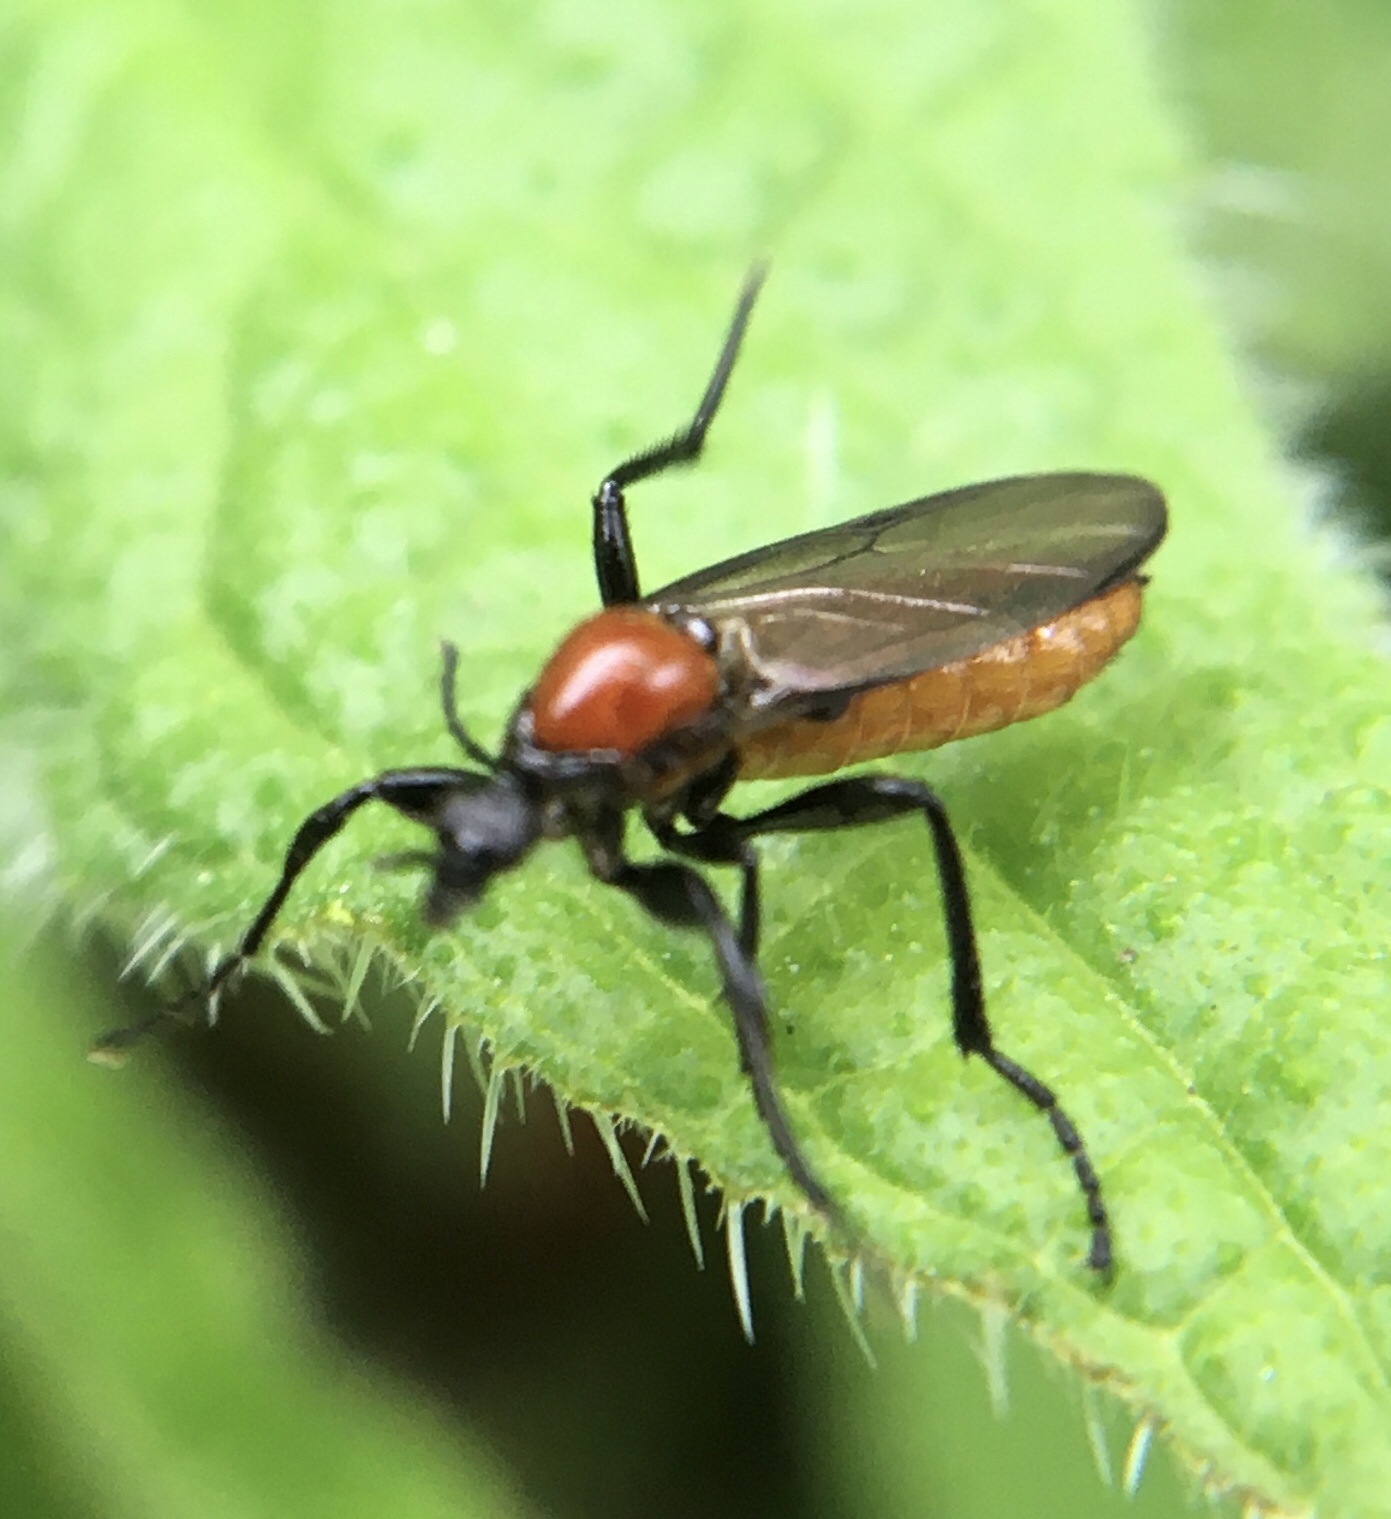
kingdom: Animalia
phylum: Arthropoda
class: Insecta
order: Diptera
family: Bibionidae
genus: Bibio
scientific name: Bibio anglicus
